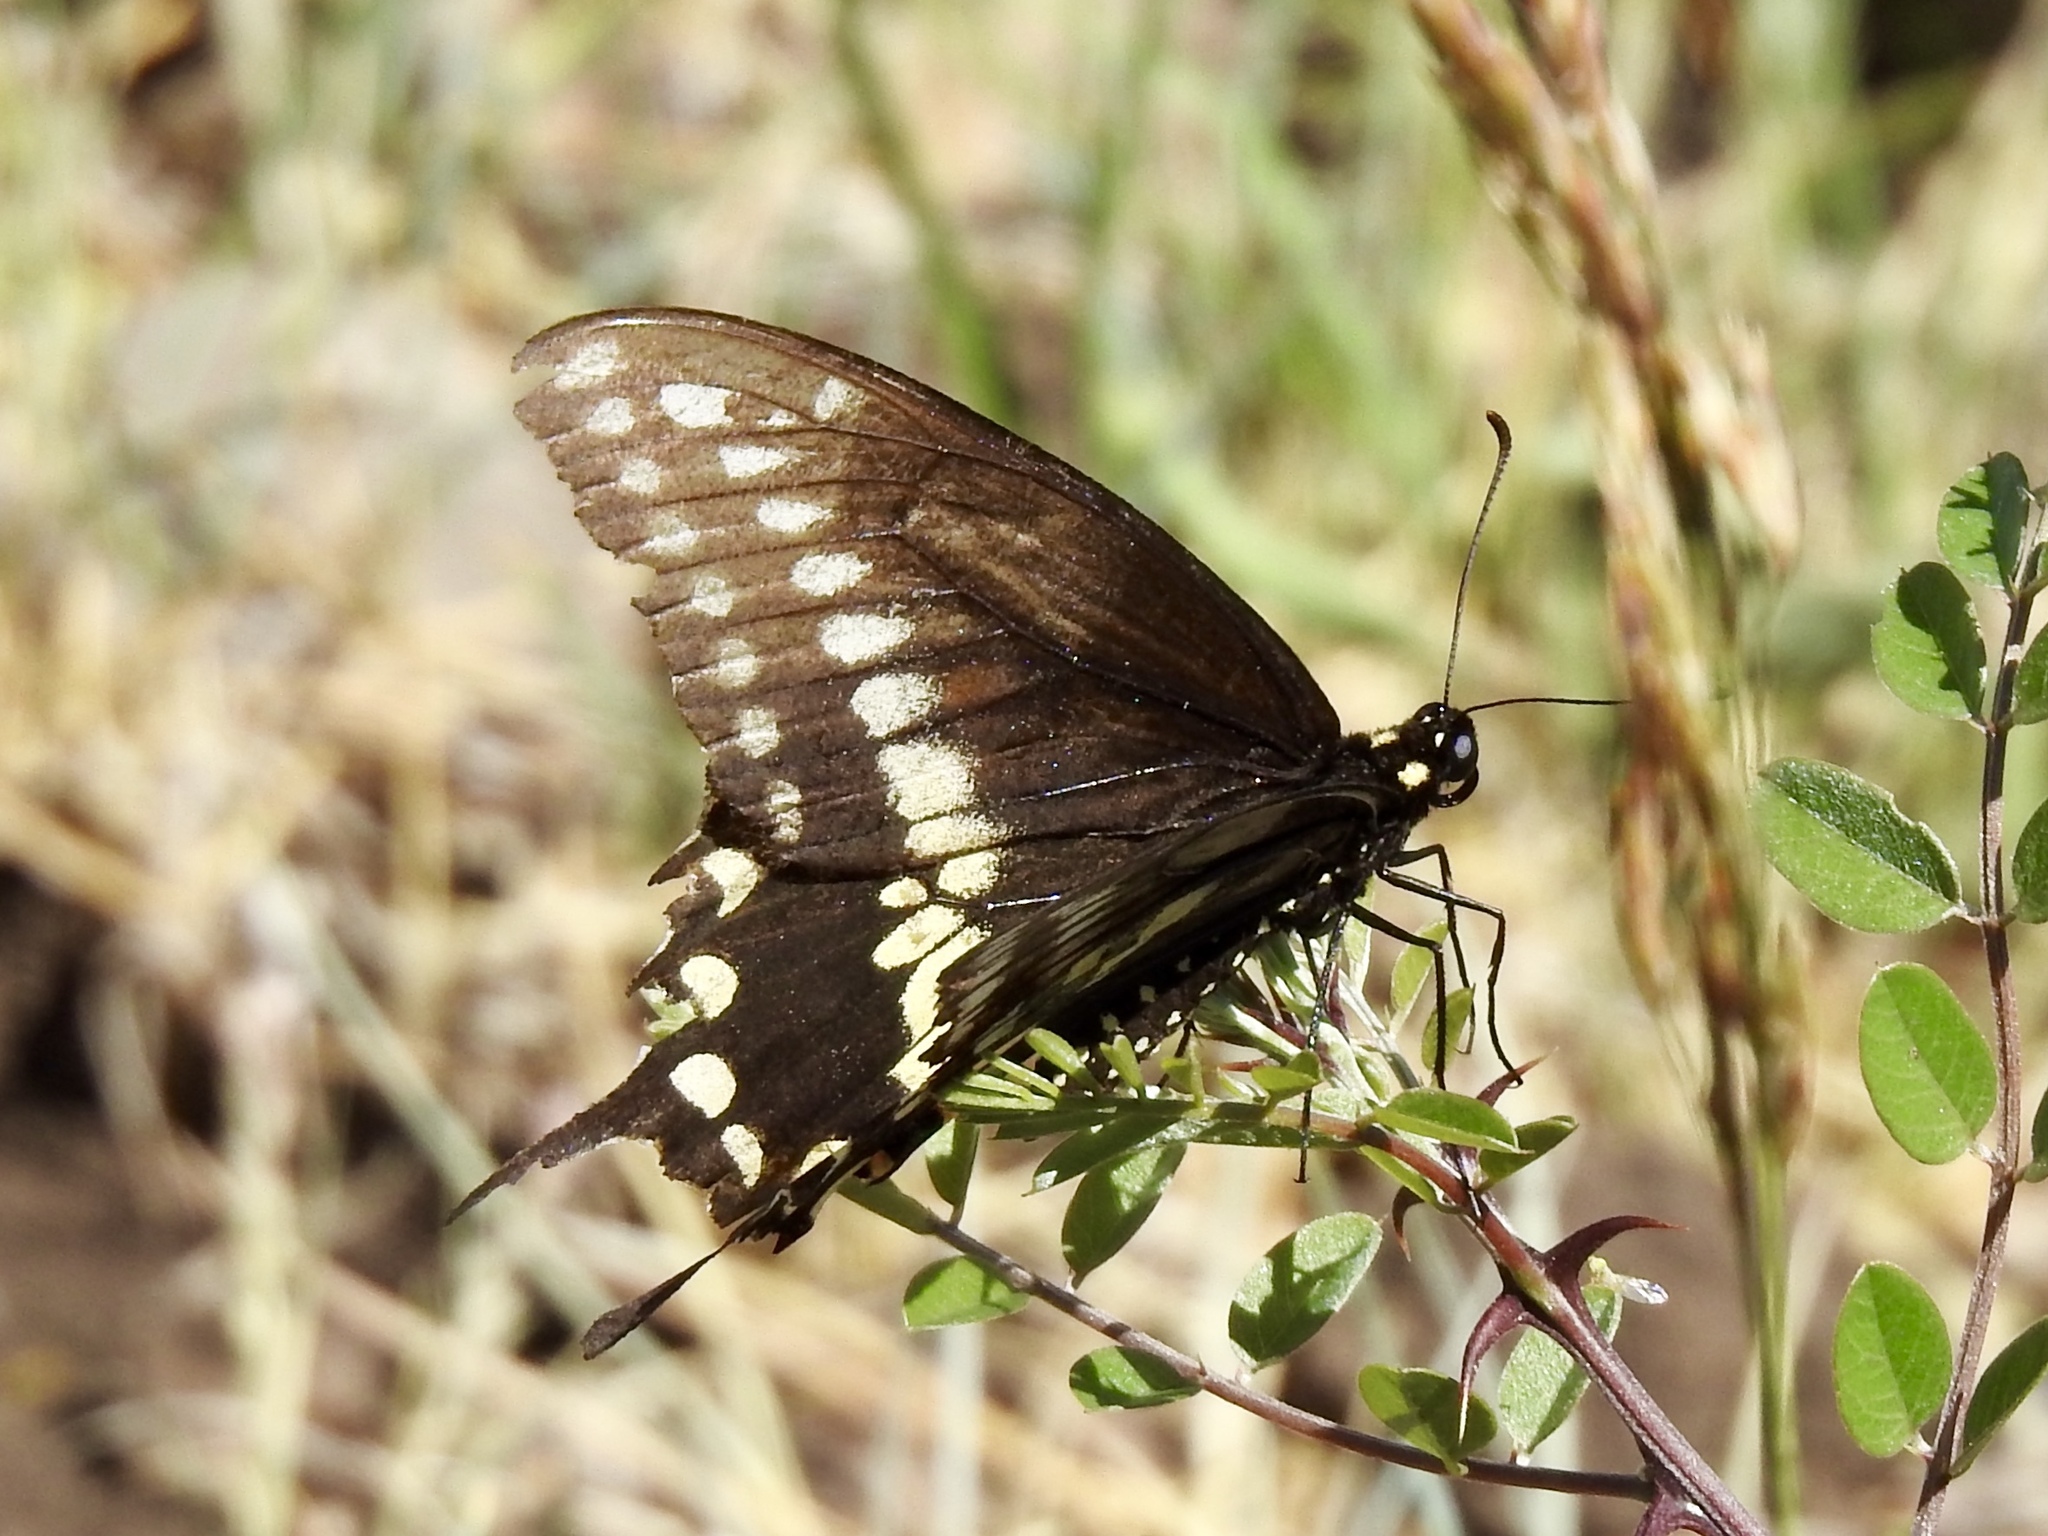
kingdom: Animalia
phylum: Arthropoda
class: Insecta
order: Lepidoptera
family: Papilionidae
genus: Papilio
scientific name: Papilio polyxenes
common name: Black swallowtail
